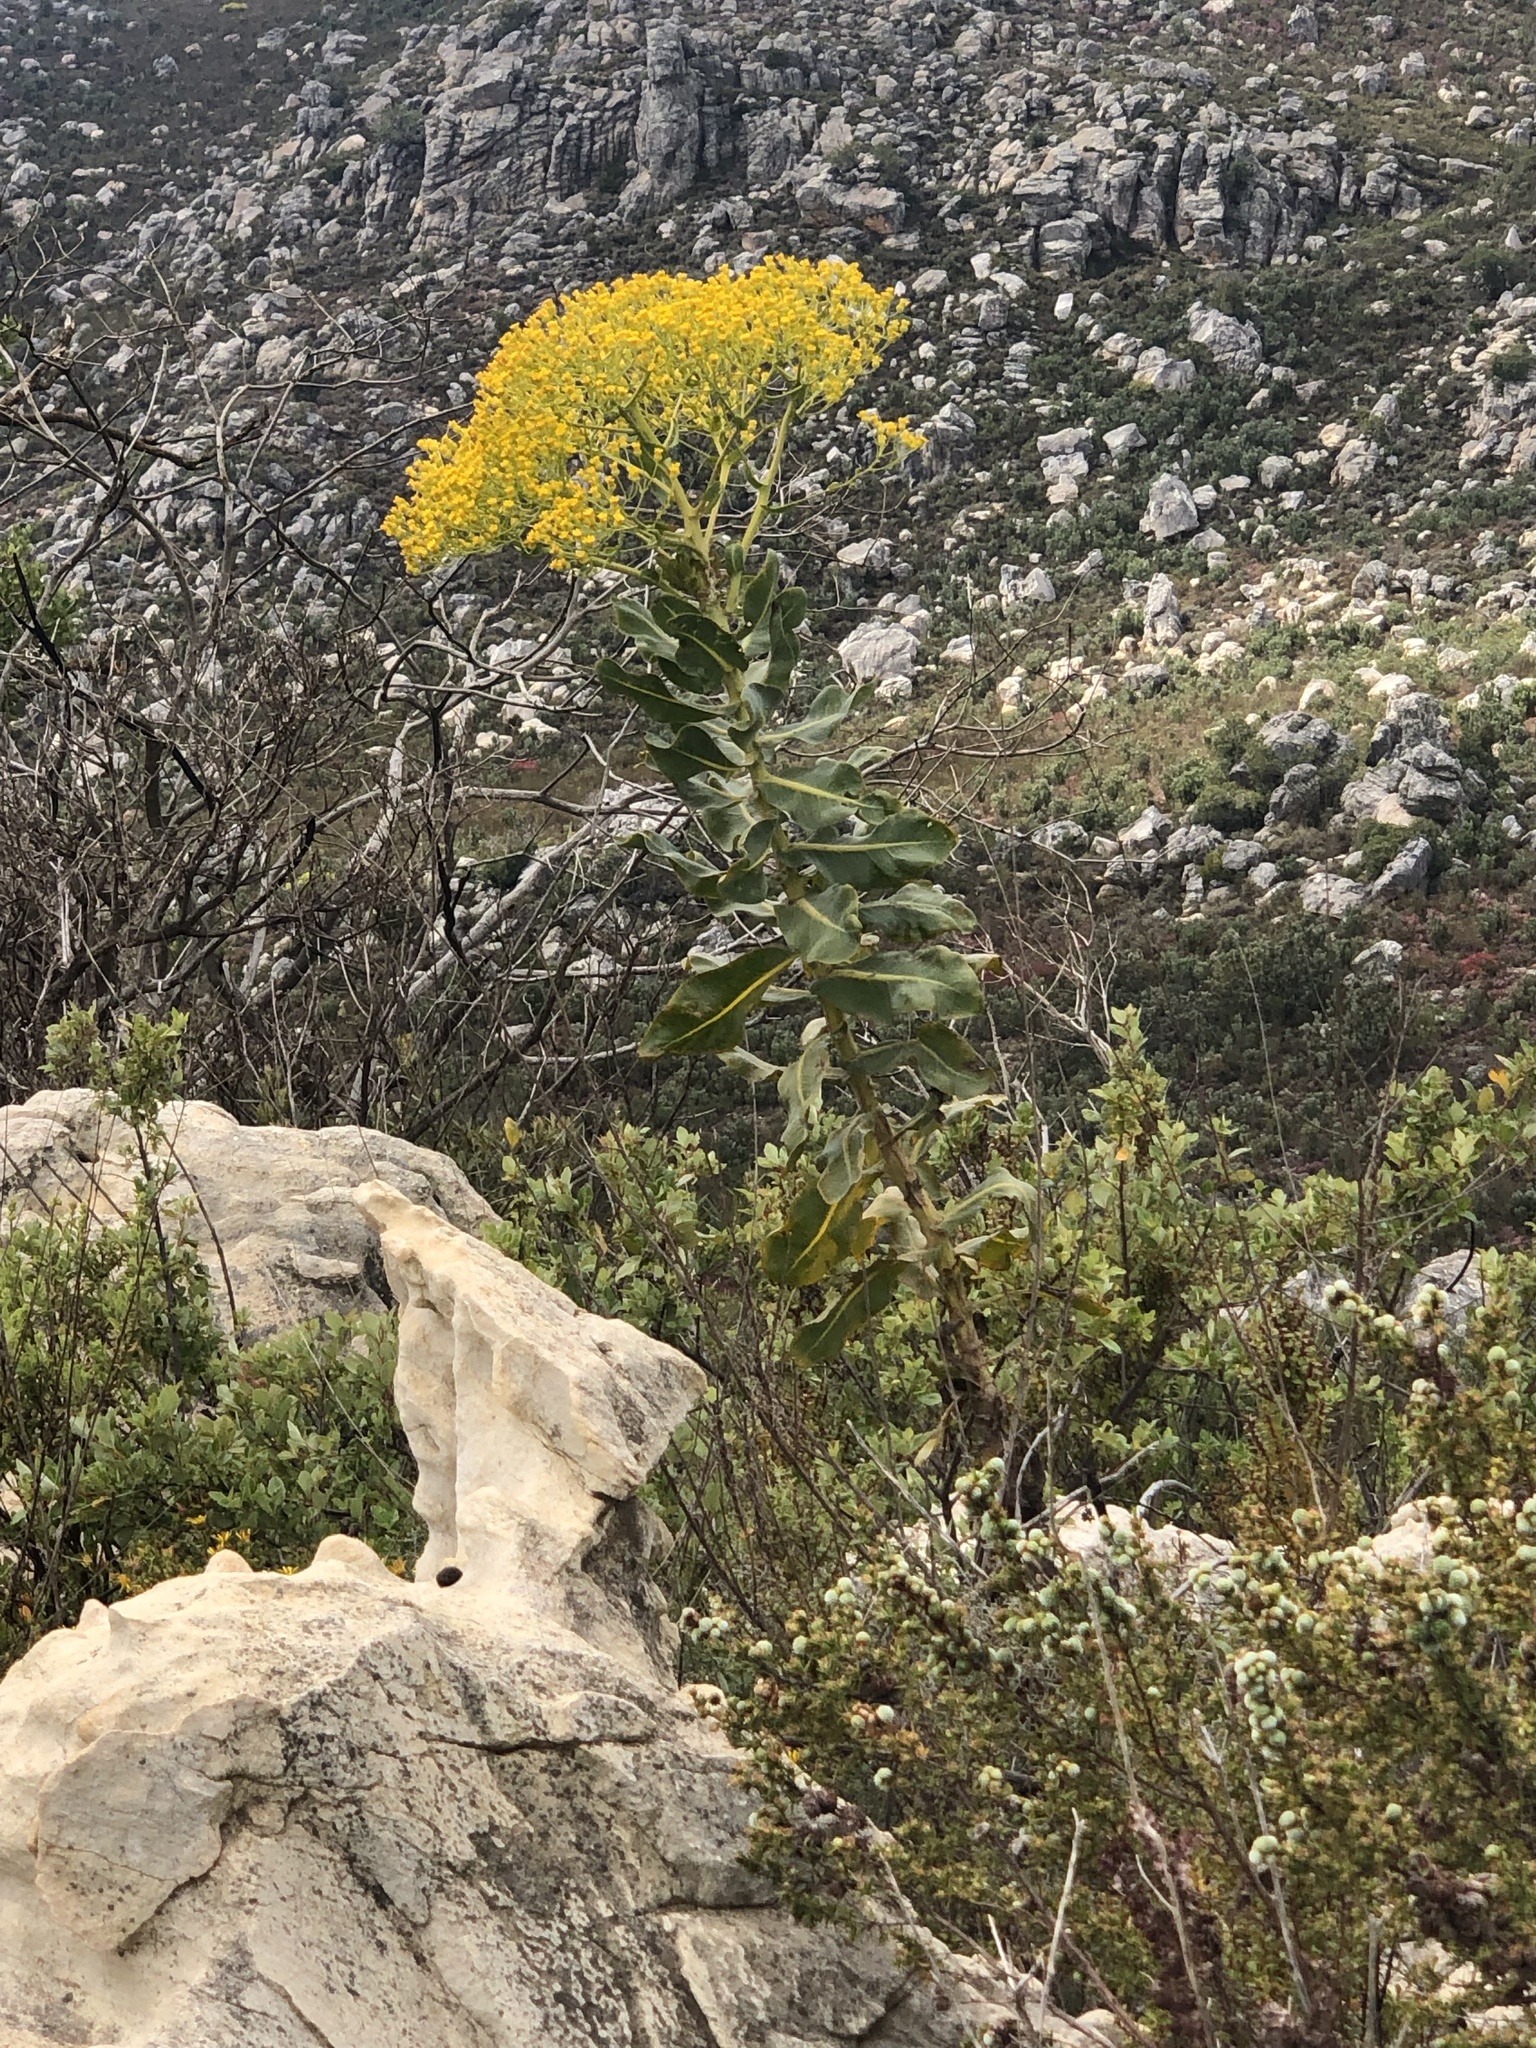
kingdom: Plantae
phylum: Tracheophyta
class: Magnoliopsida
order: Asterales
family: Asteraceae
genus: Senecio
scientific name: Senecio rigidus
